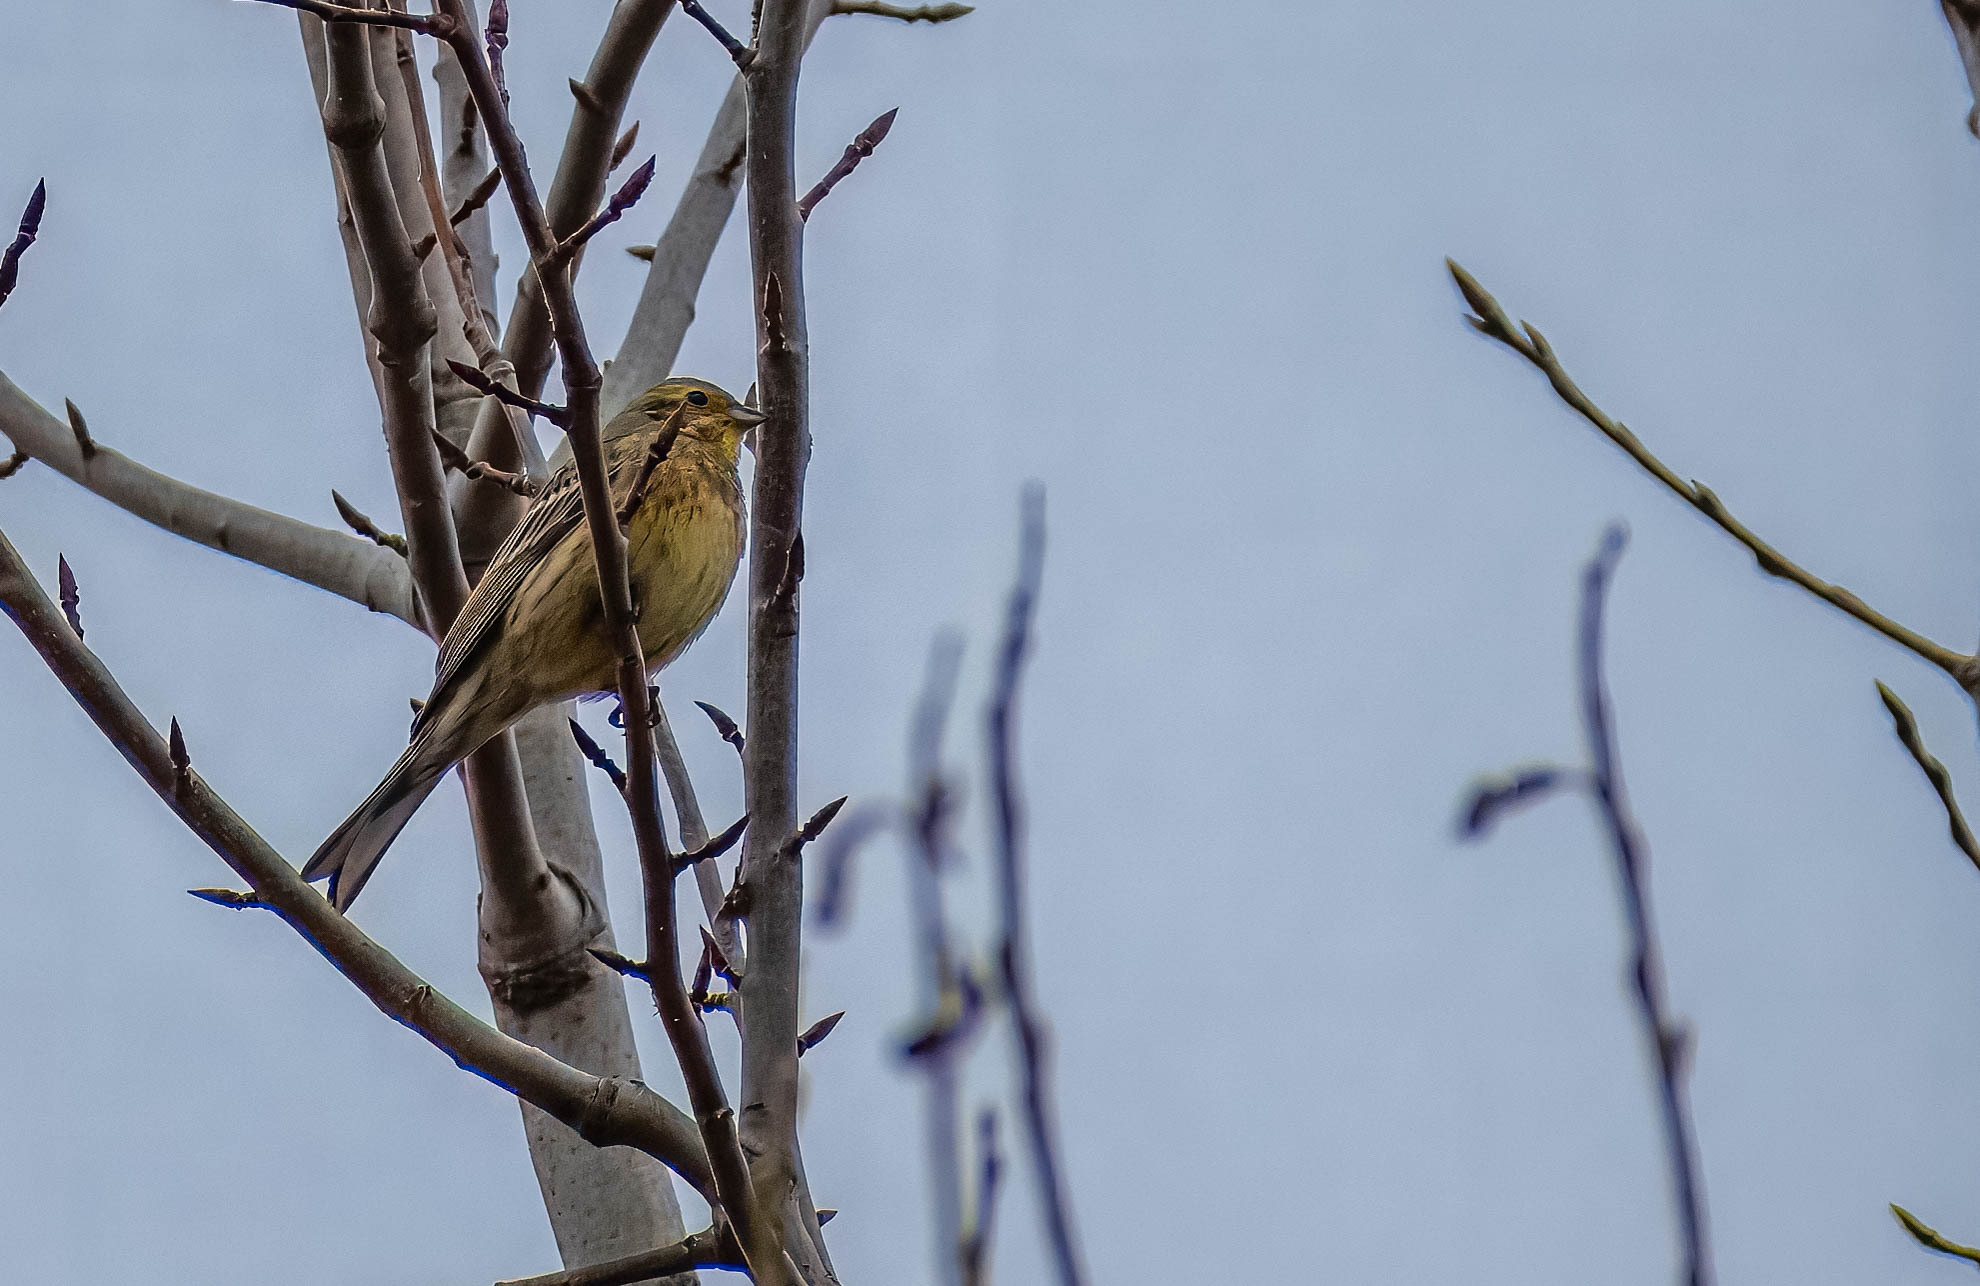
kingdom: Animalia
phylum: Chordata
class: Aves
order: Passeriformes
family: Emberizidae
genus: Emberiza
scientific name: Emberiza citrinella
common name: Yellowhammer
